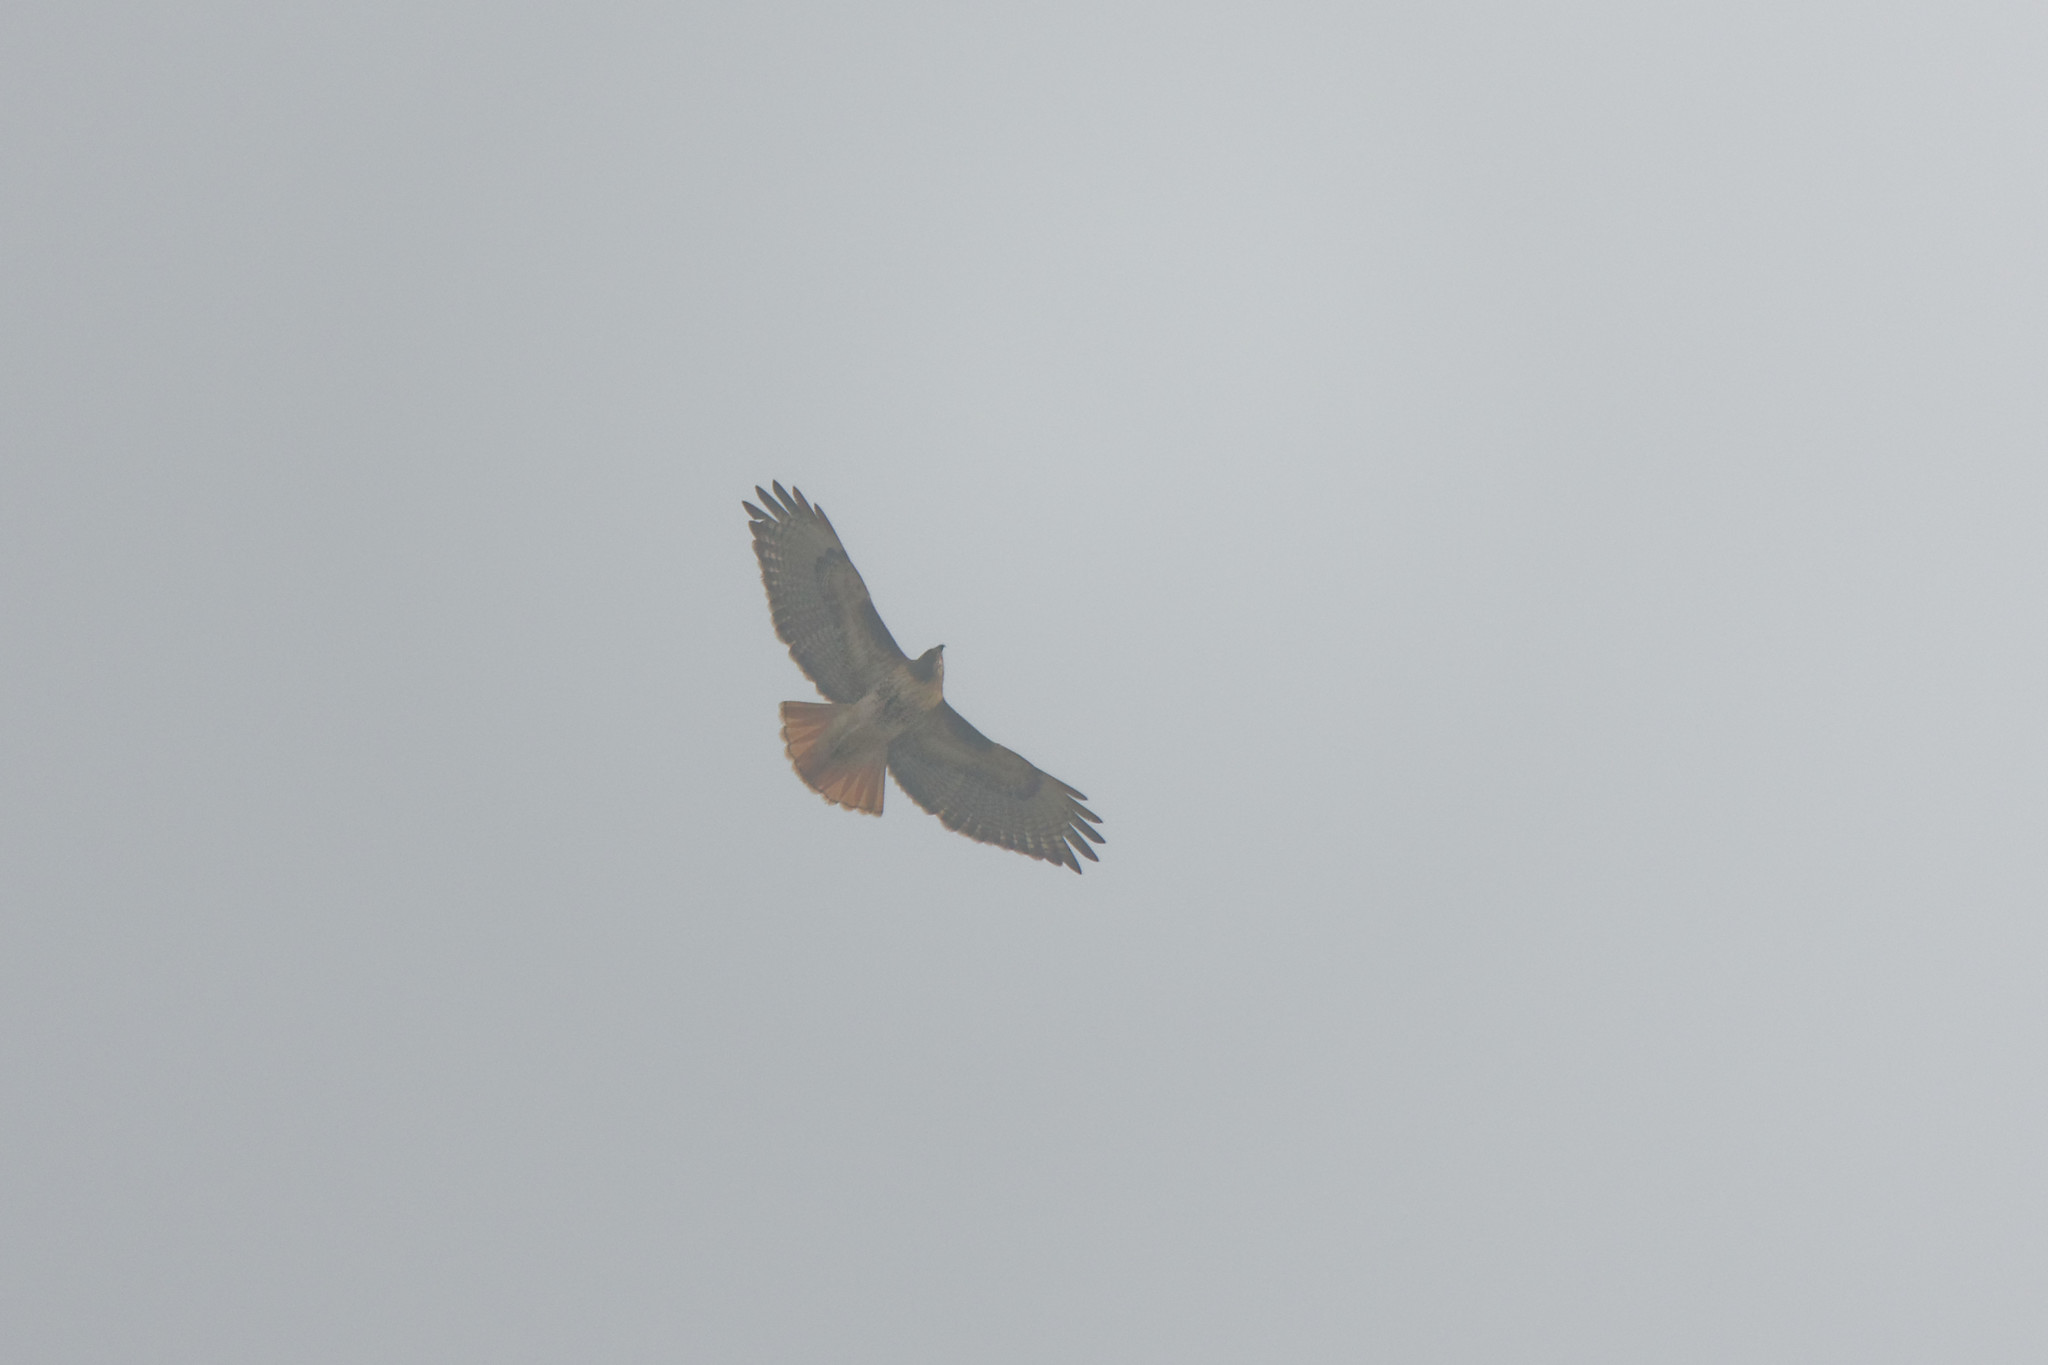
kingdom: Animalia
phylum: Chordata
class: Aves
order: Accipitriformes
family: Accipitridae
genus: Buteo
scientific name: Buteo jamaicensis
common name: Red-tailed hawk
